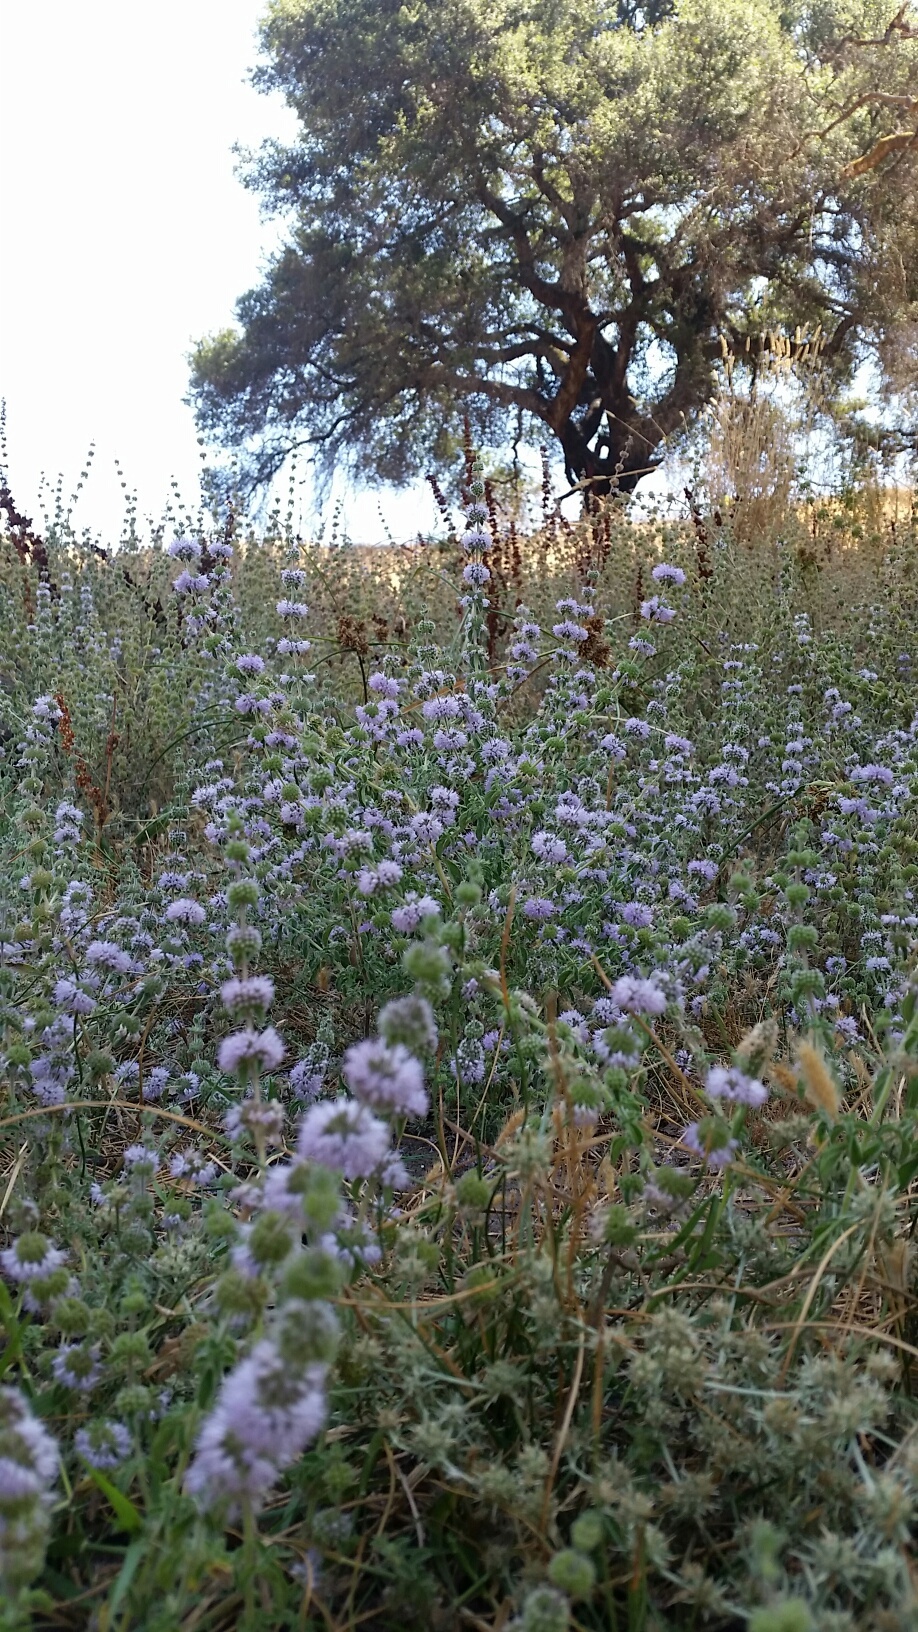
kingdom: Plantae
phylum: Tracheophyta
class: Magnoliopsida
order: Lamiales
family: Lamiaceae
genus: Mentha
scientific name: Mentha pulegium
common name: Pennyroyal
